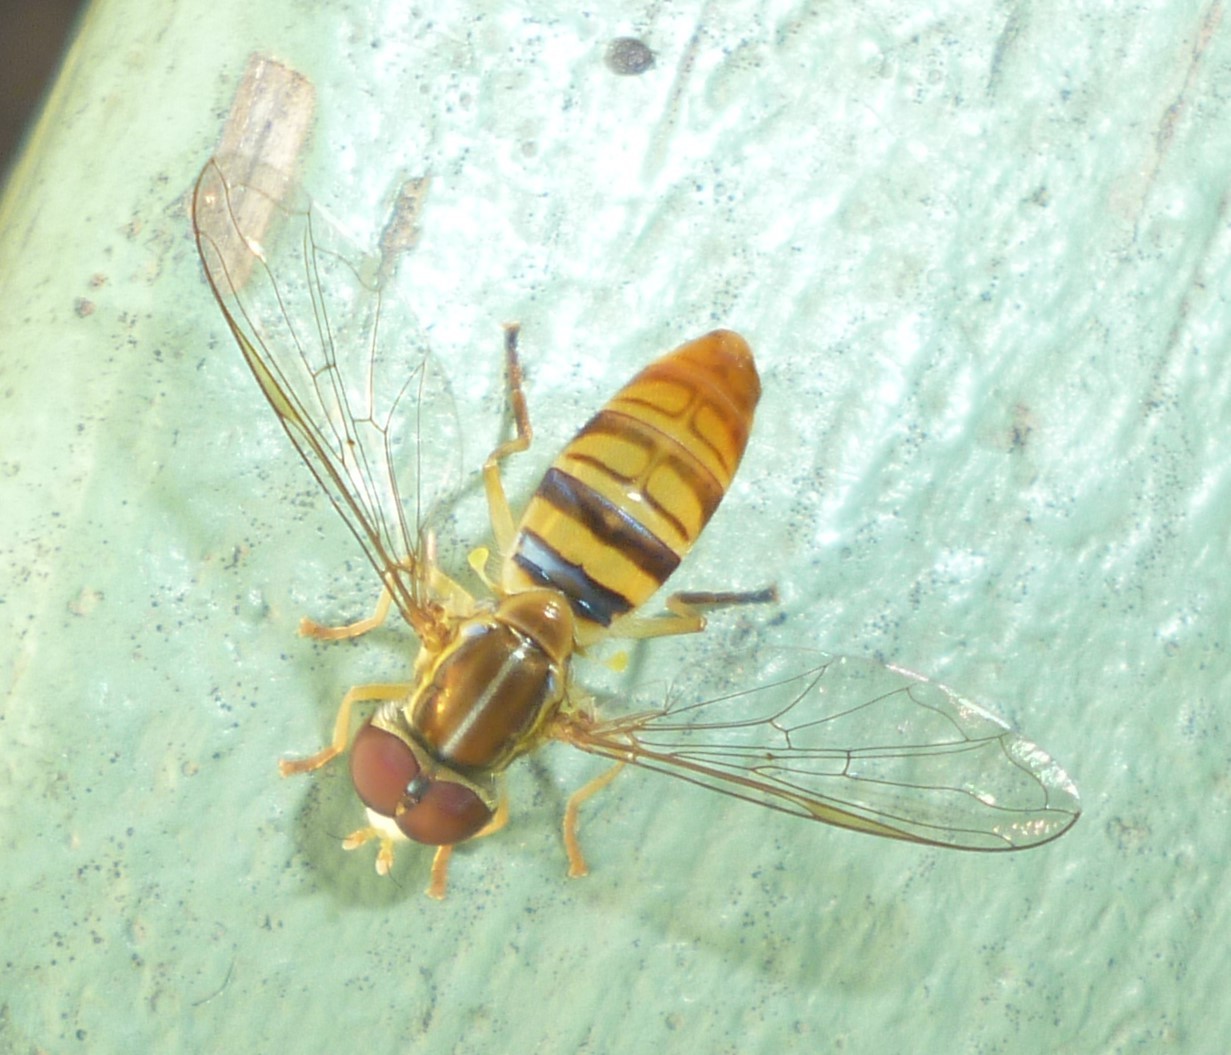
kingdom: Animalia
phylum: Arthropoda
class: Insecta
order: Diptera
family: Syrphidae
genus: Toxomerus
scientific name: Toxomerus politus
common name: Maize calligrapher
